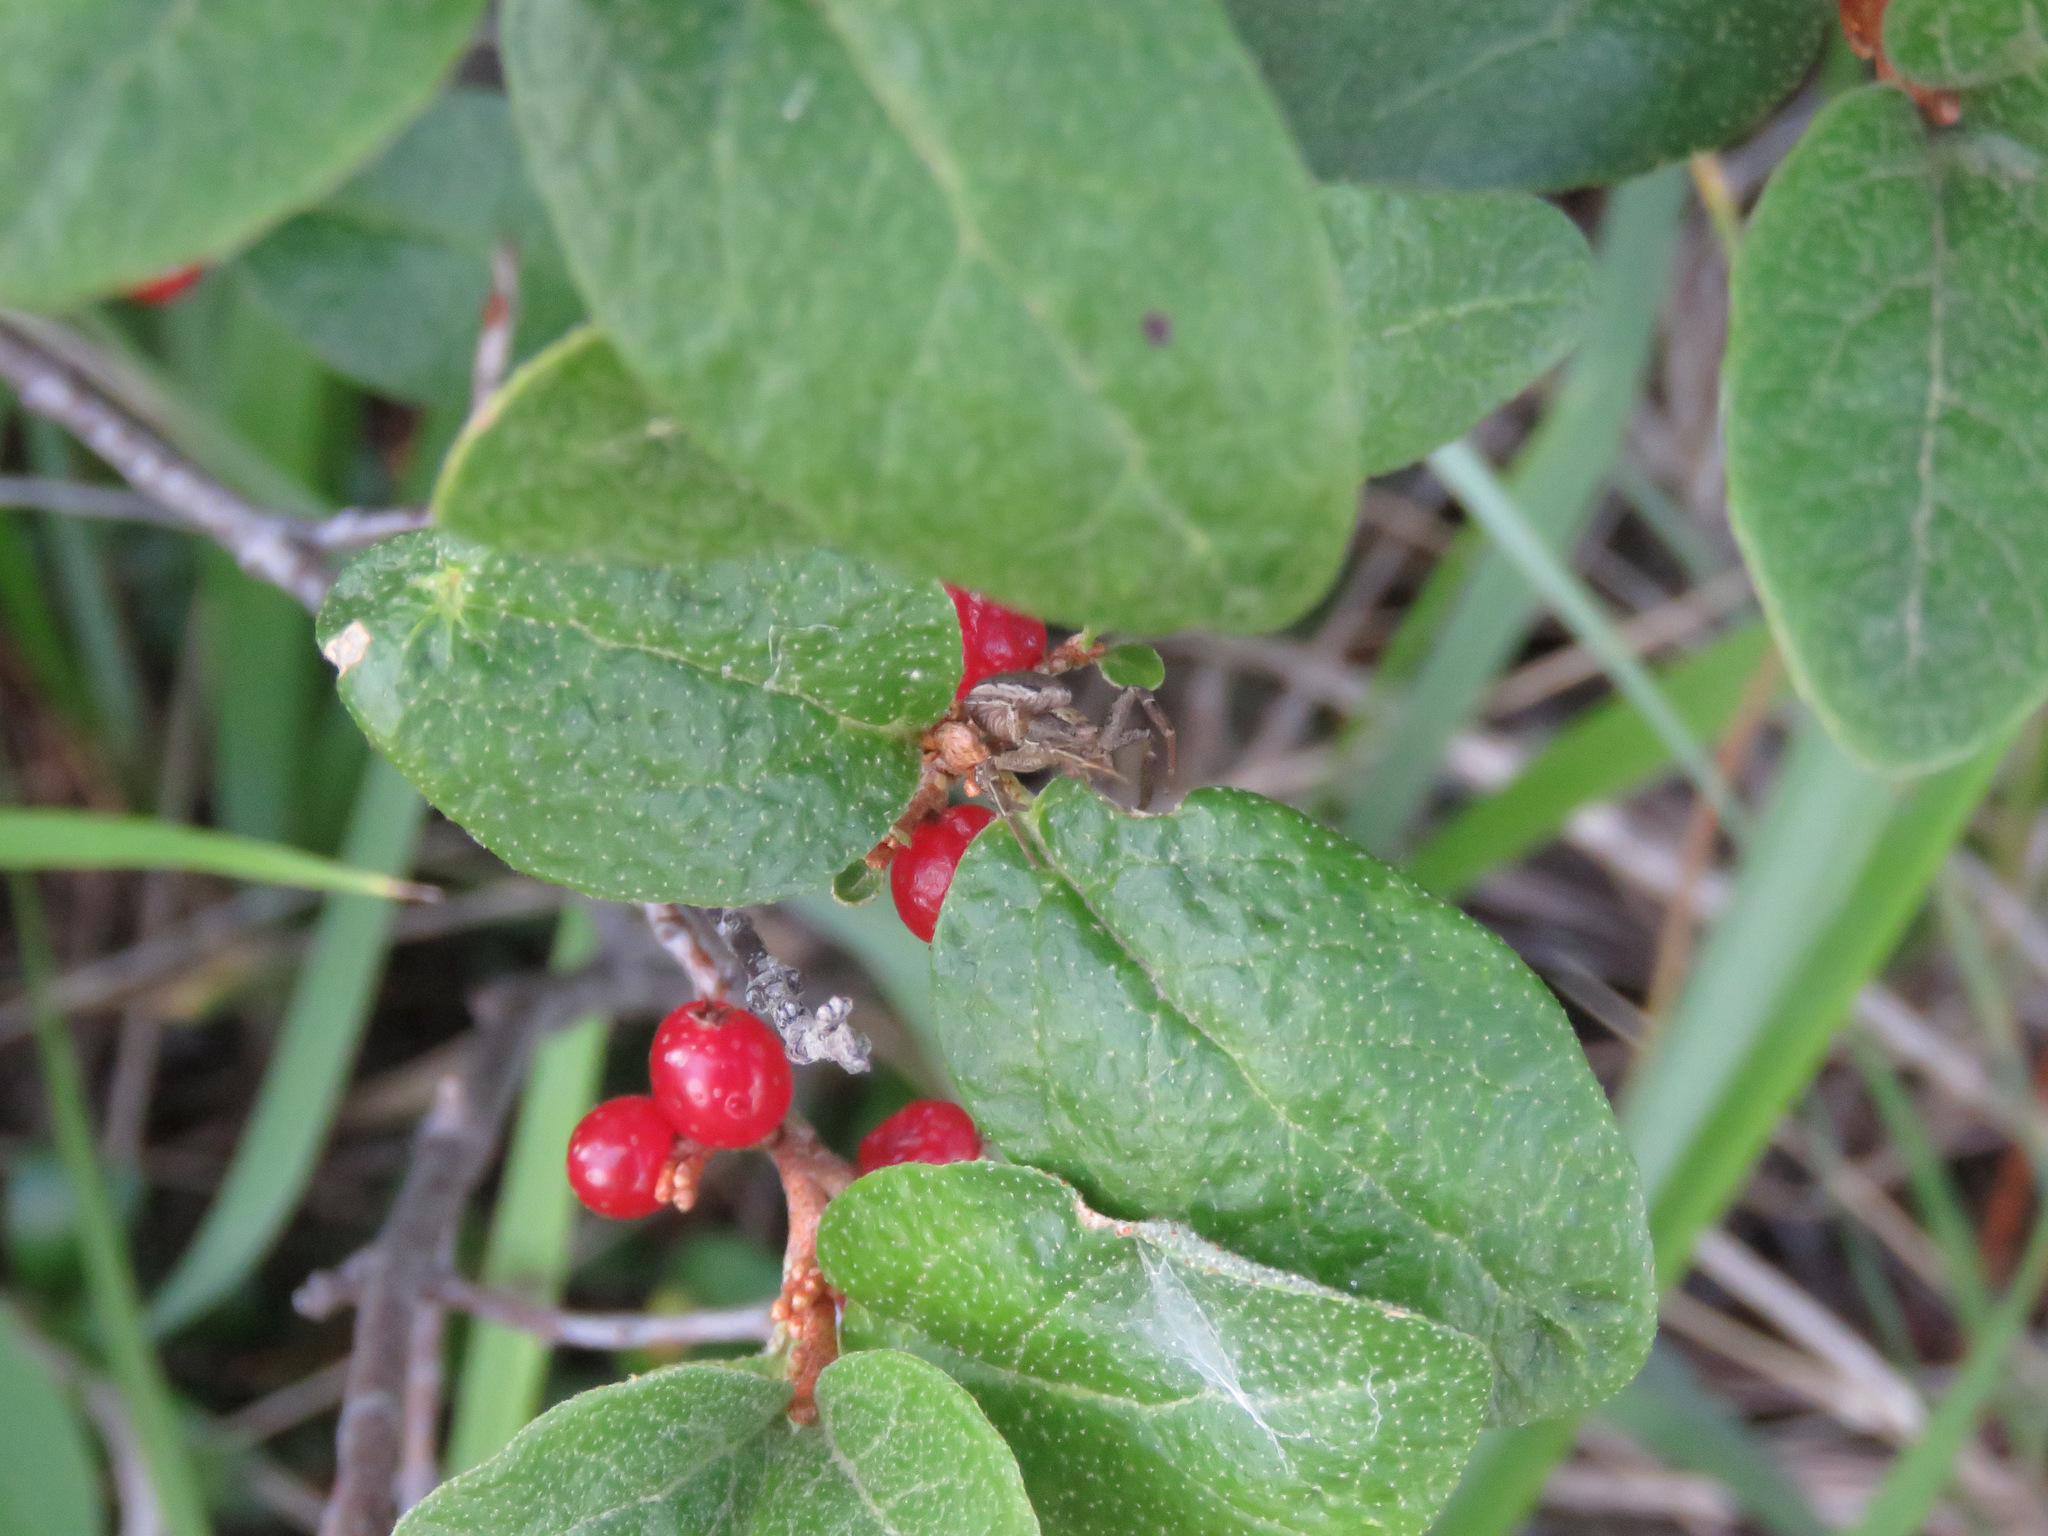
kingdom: Plantae
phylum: Tracheophyta
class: Magnoliopsida
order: Rosales
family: Elaeagnaceae
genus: Shepherdia
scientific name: Shepherdia canadensis
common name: Soapberry
